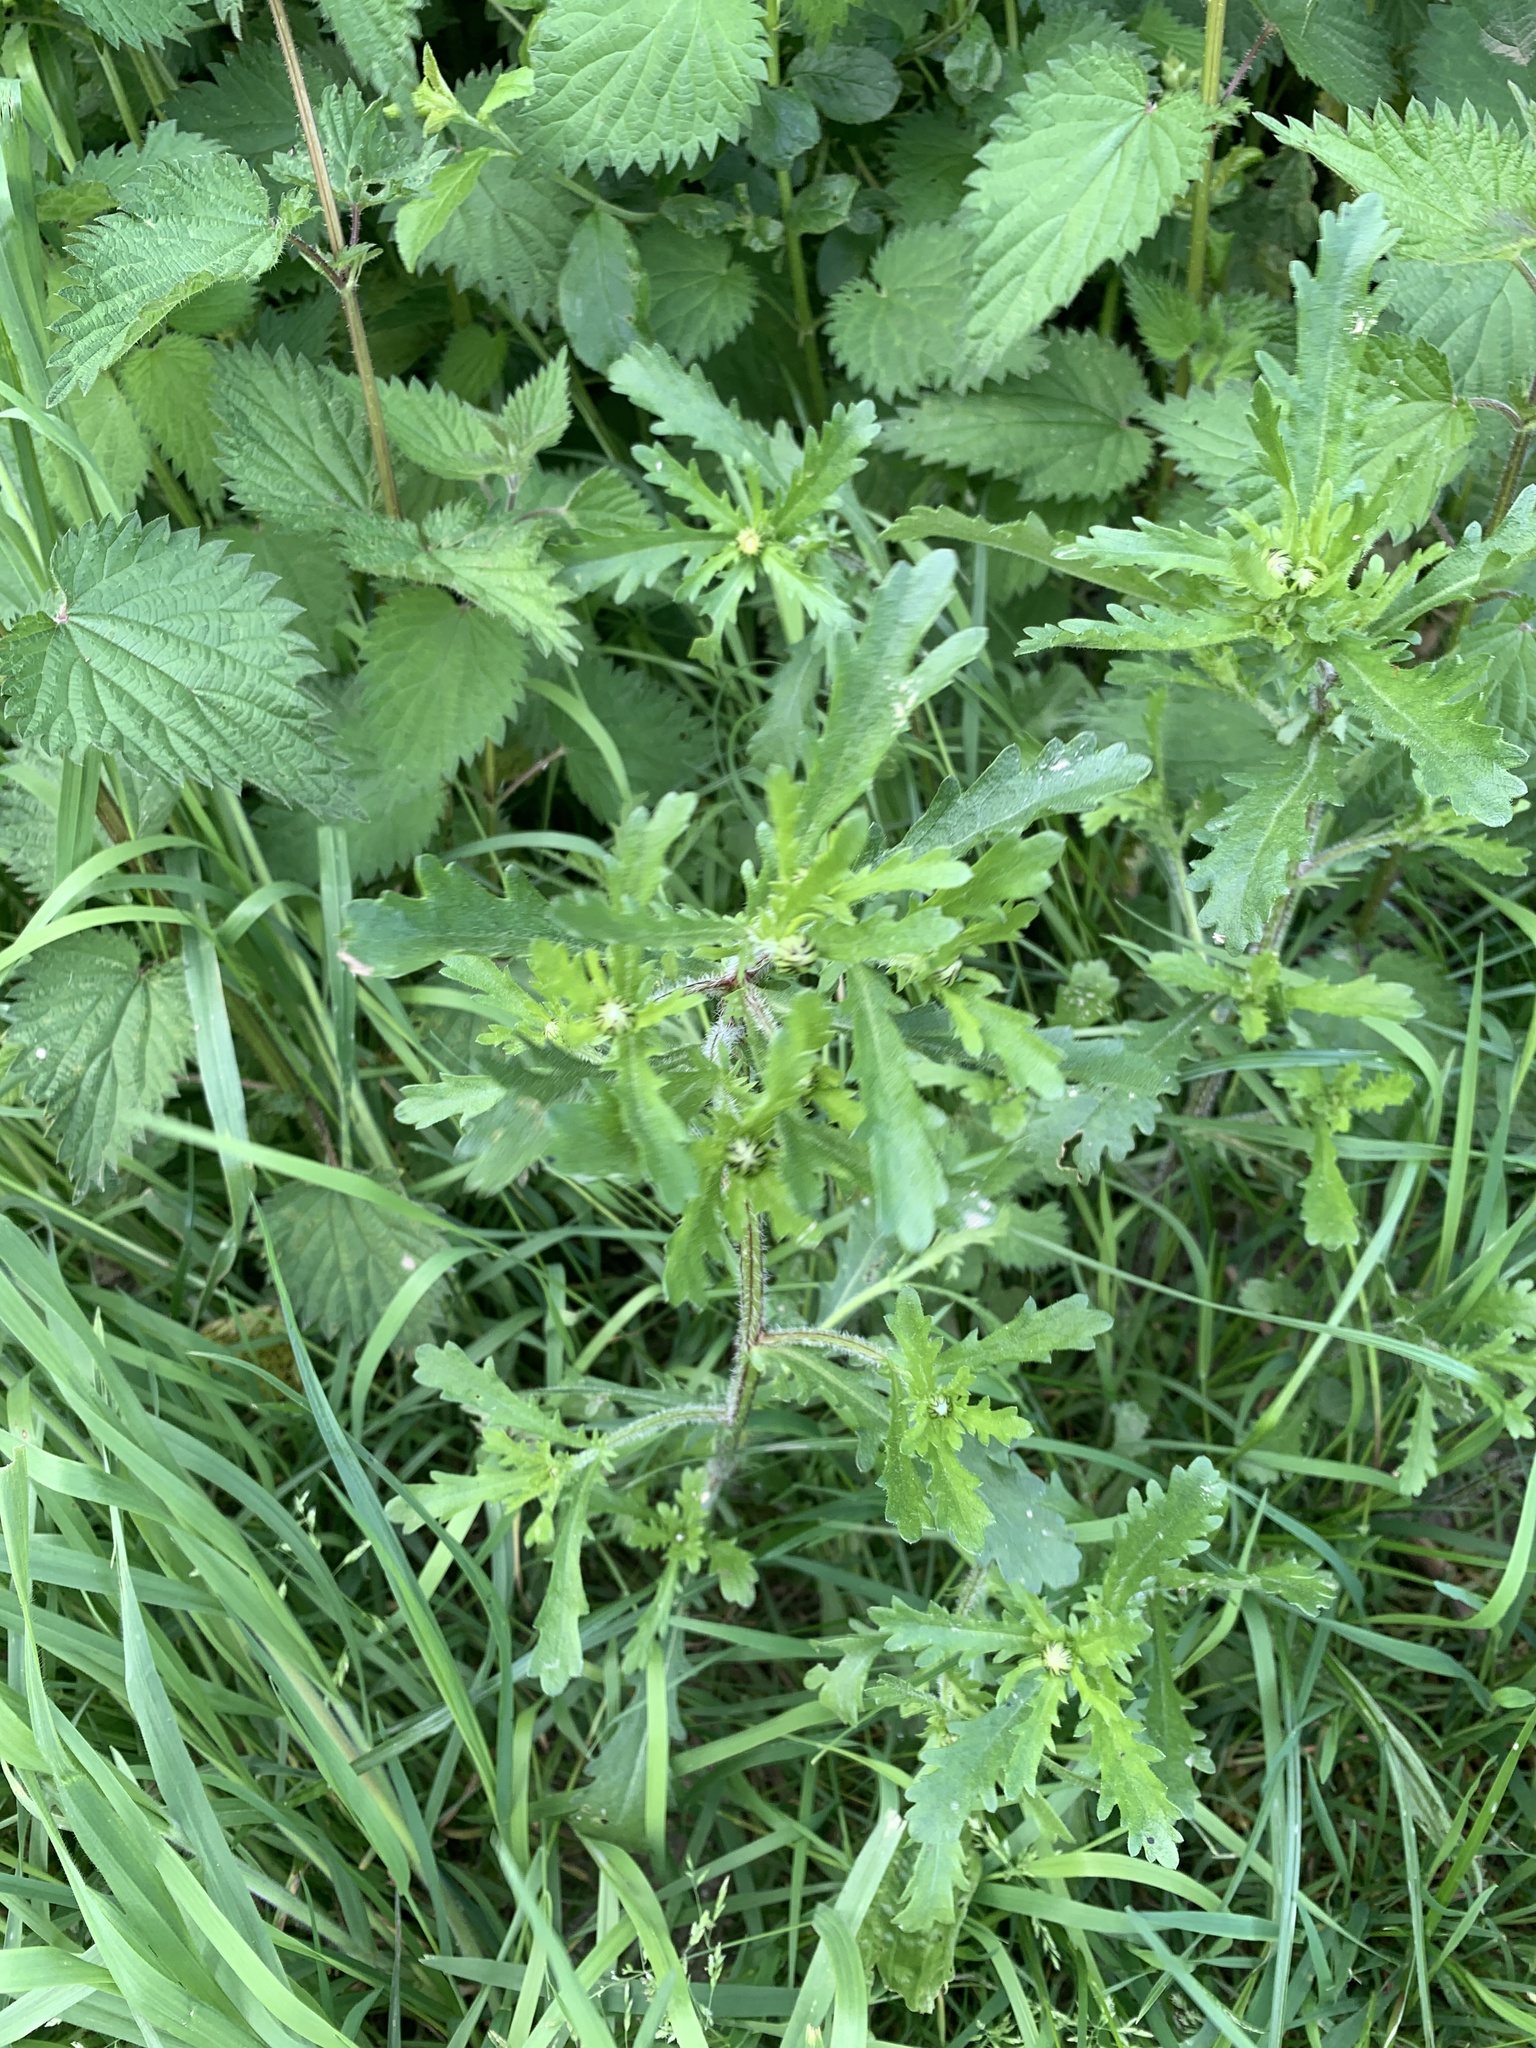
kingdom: Plantae
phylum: Tracheophyta
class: Magnoliopsida
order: Asterales
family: Asteraceae
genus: Leucanthemum
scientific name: Leucanthemum vulgare
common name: Oxeye daisy
